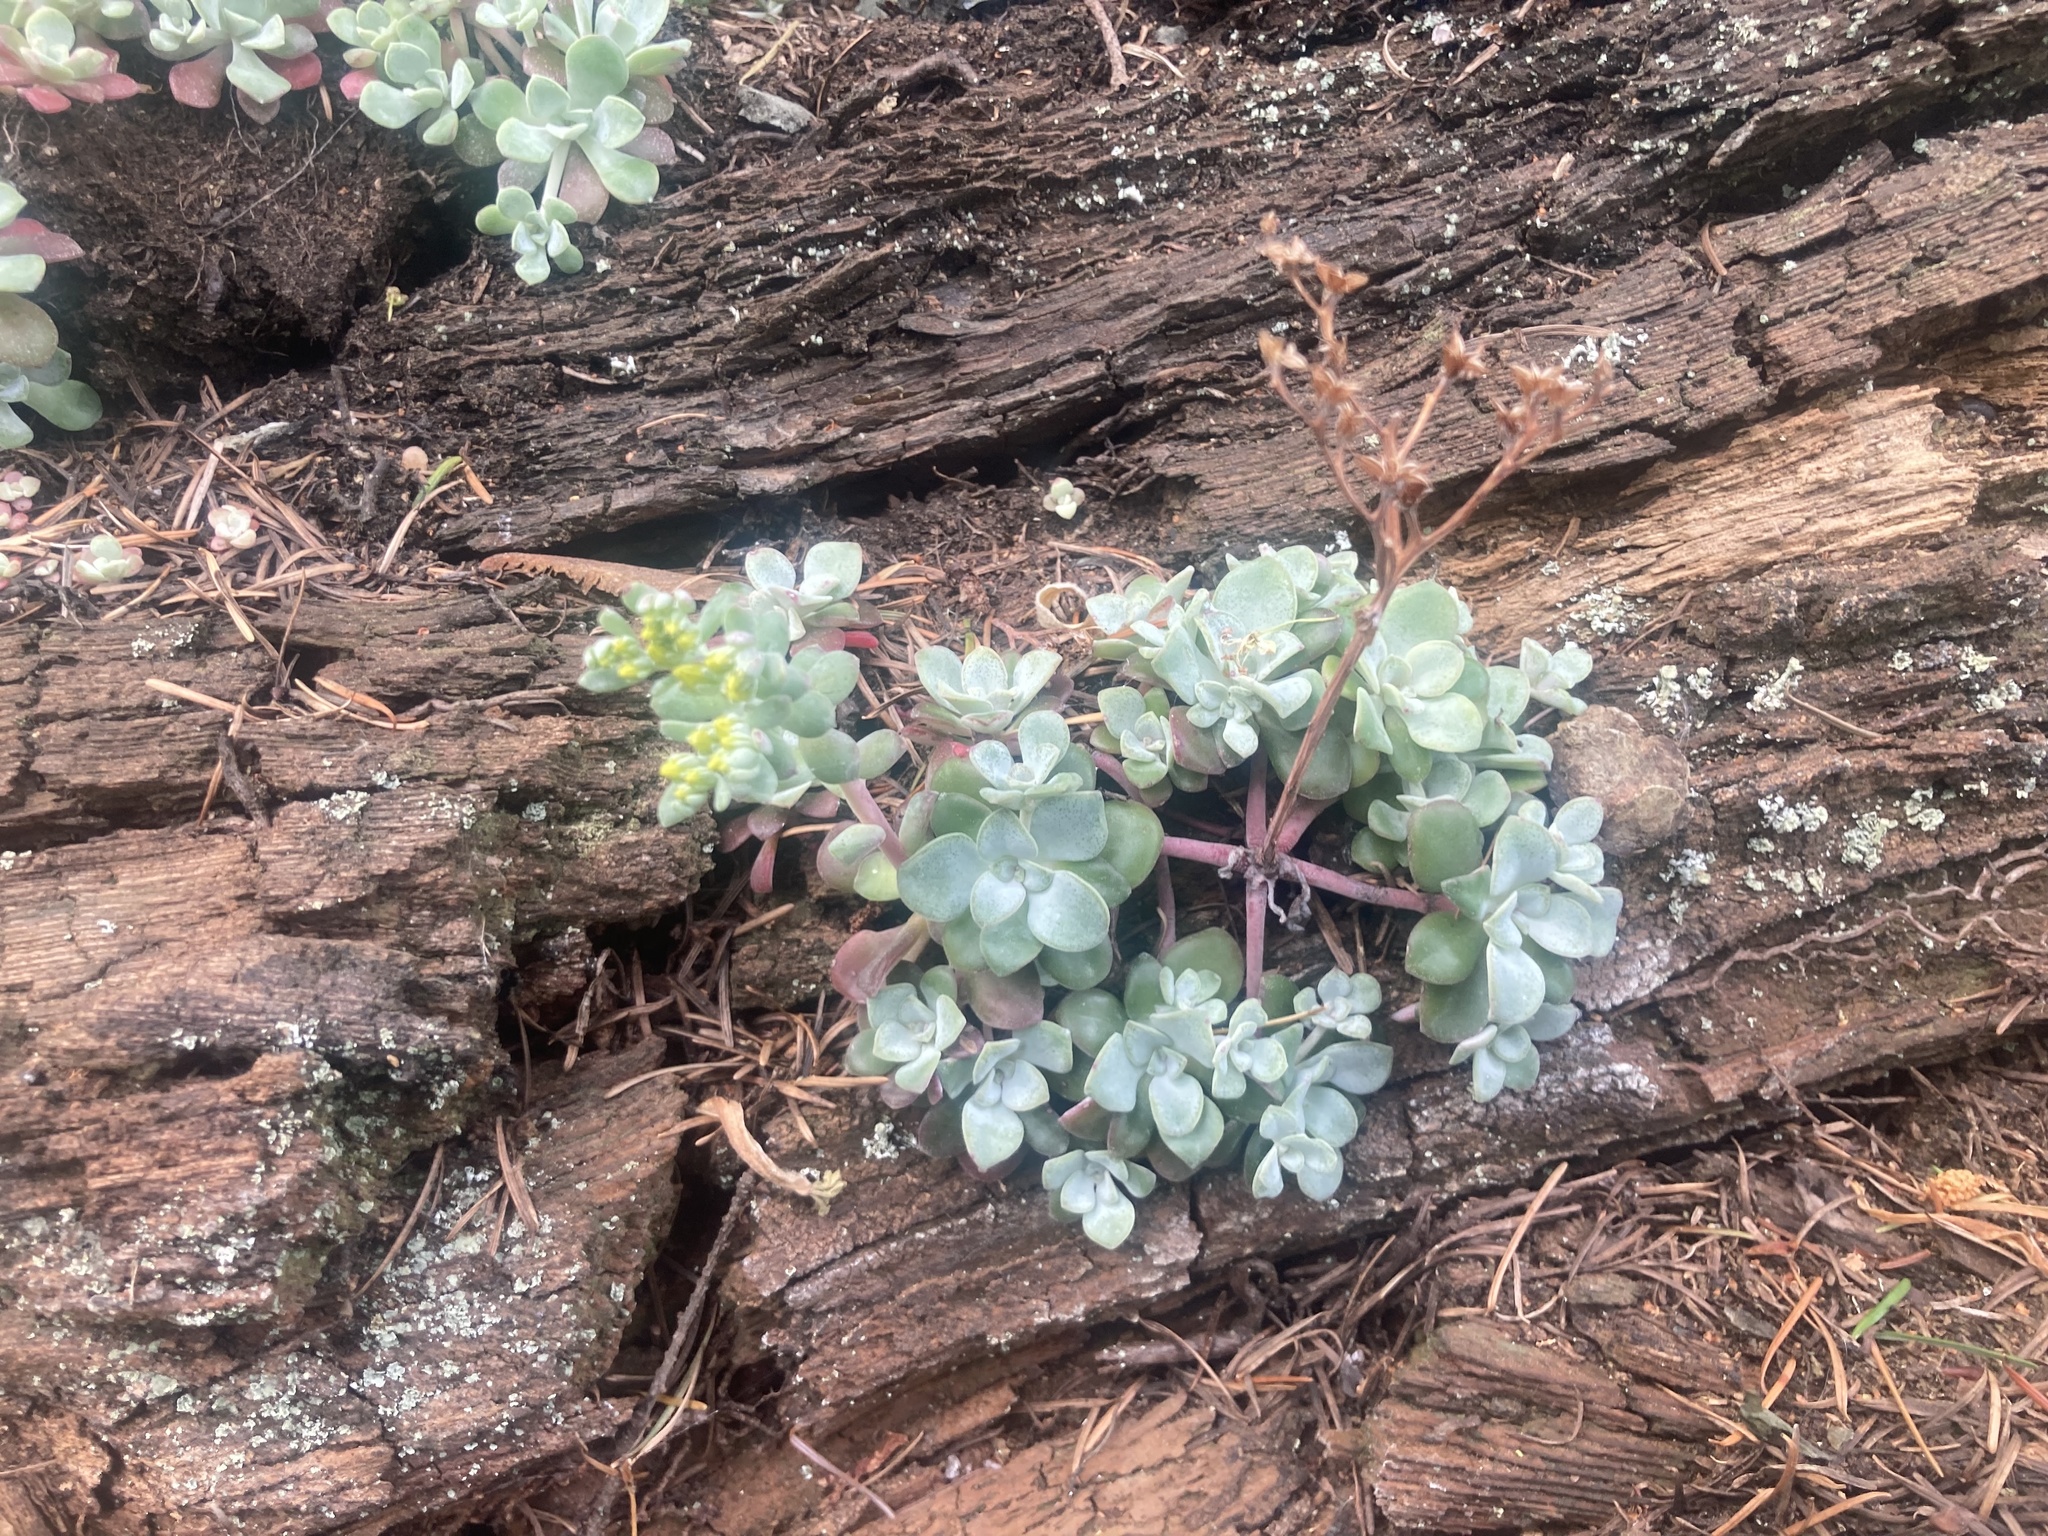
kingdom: Plantae
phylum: Tracheophyta
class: Magnoliopsida
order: Saxifragales
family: Crassulaceae
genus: Sedum
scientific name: Sedum spathulifolium
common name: Colorado stonecrop
